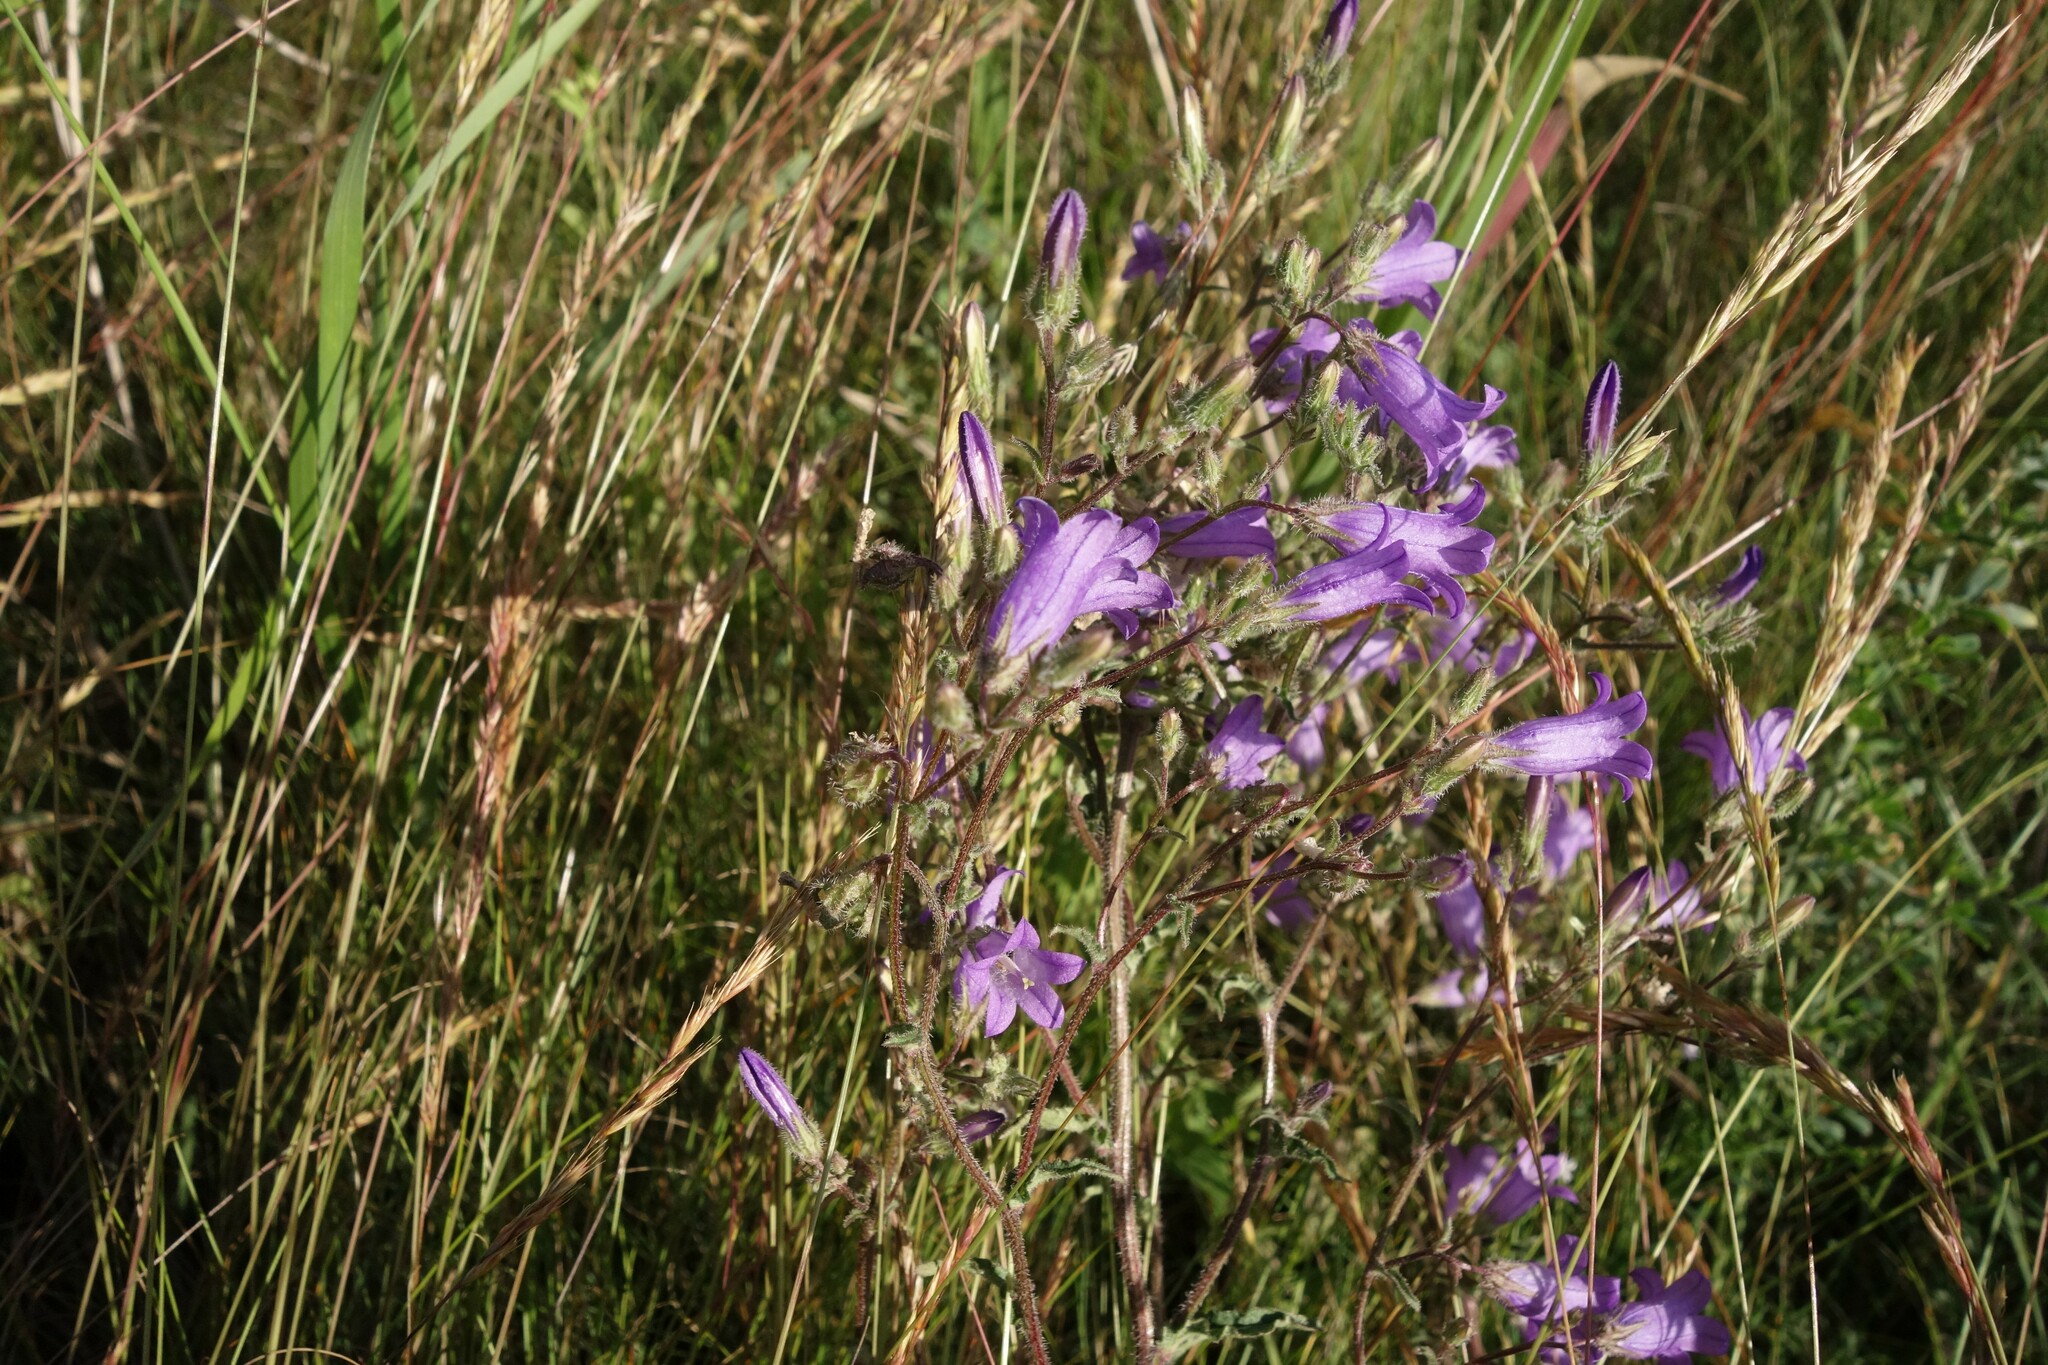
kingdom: Plantae
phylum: Tracheophyta
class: Magnoliopsida
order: Asterales
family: Campanulaceae
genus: Campanula
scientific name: Campanula sibirica
